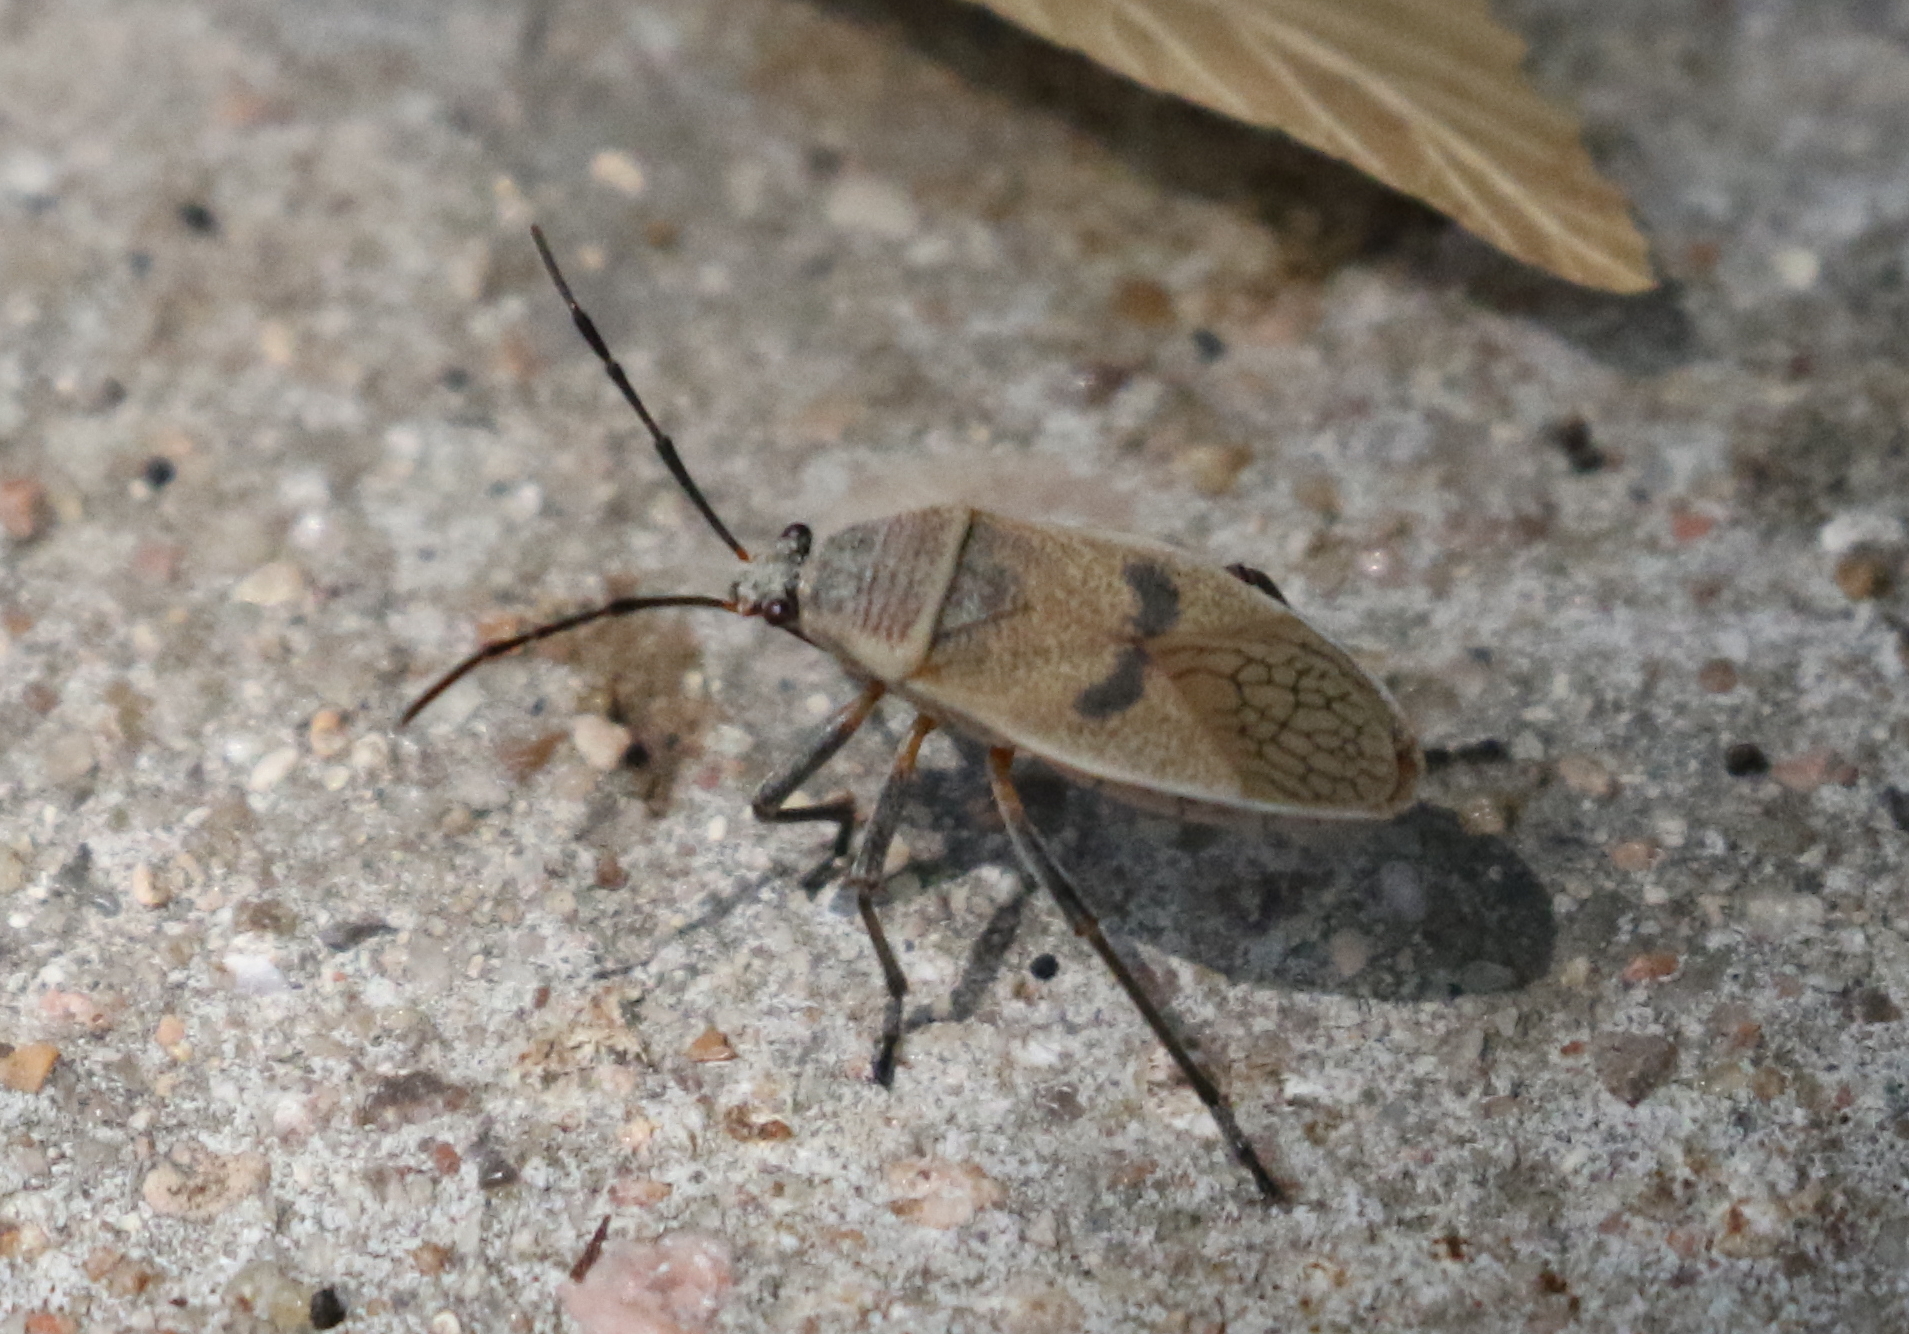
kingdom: Animalia
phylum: Arthropoda
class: Insecta
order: Hemiptera
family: Largidae
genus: Largus
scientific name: Largus maculatus
